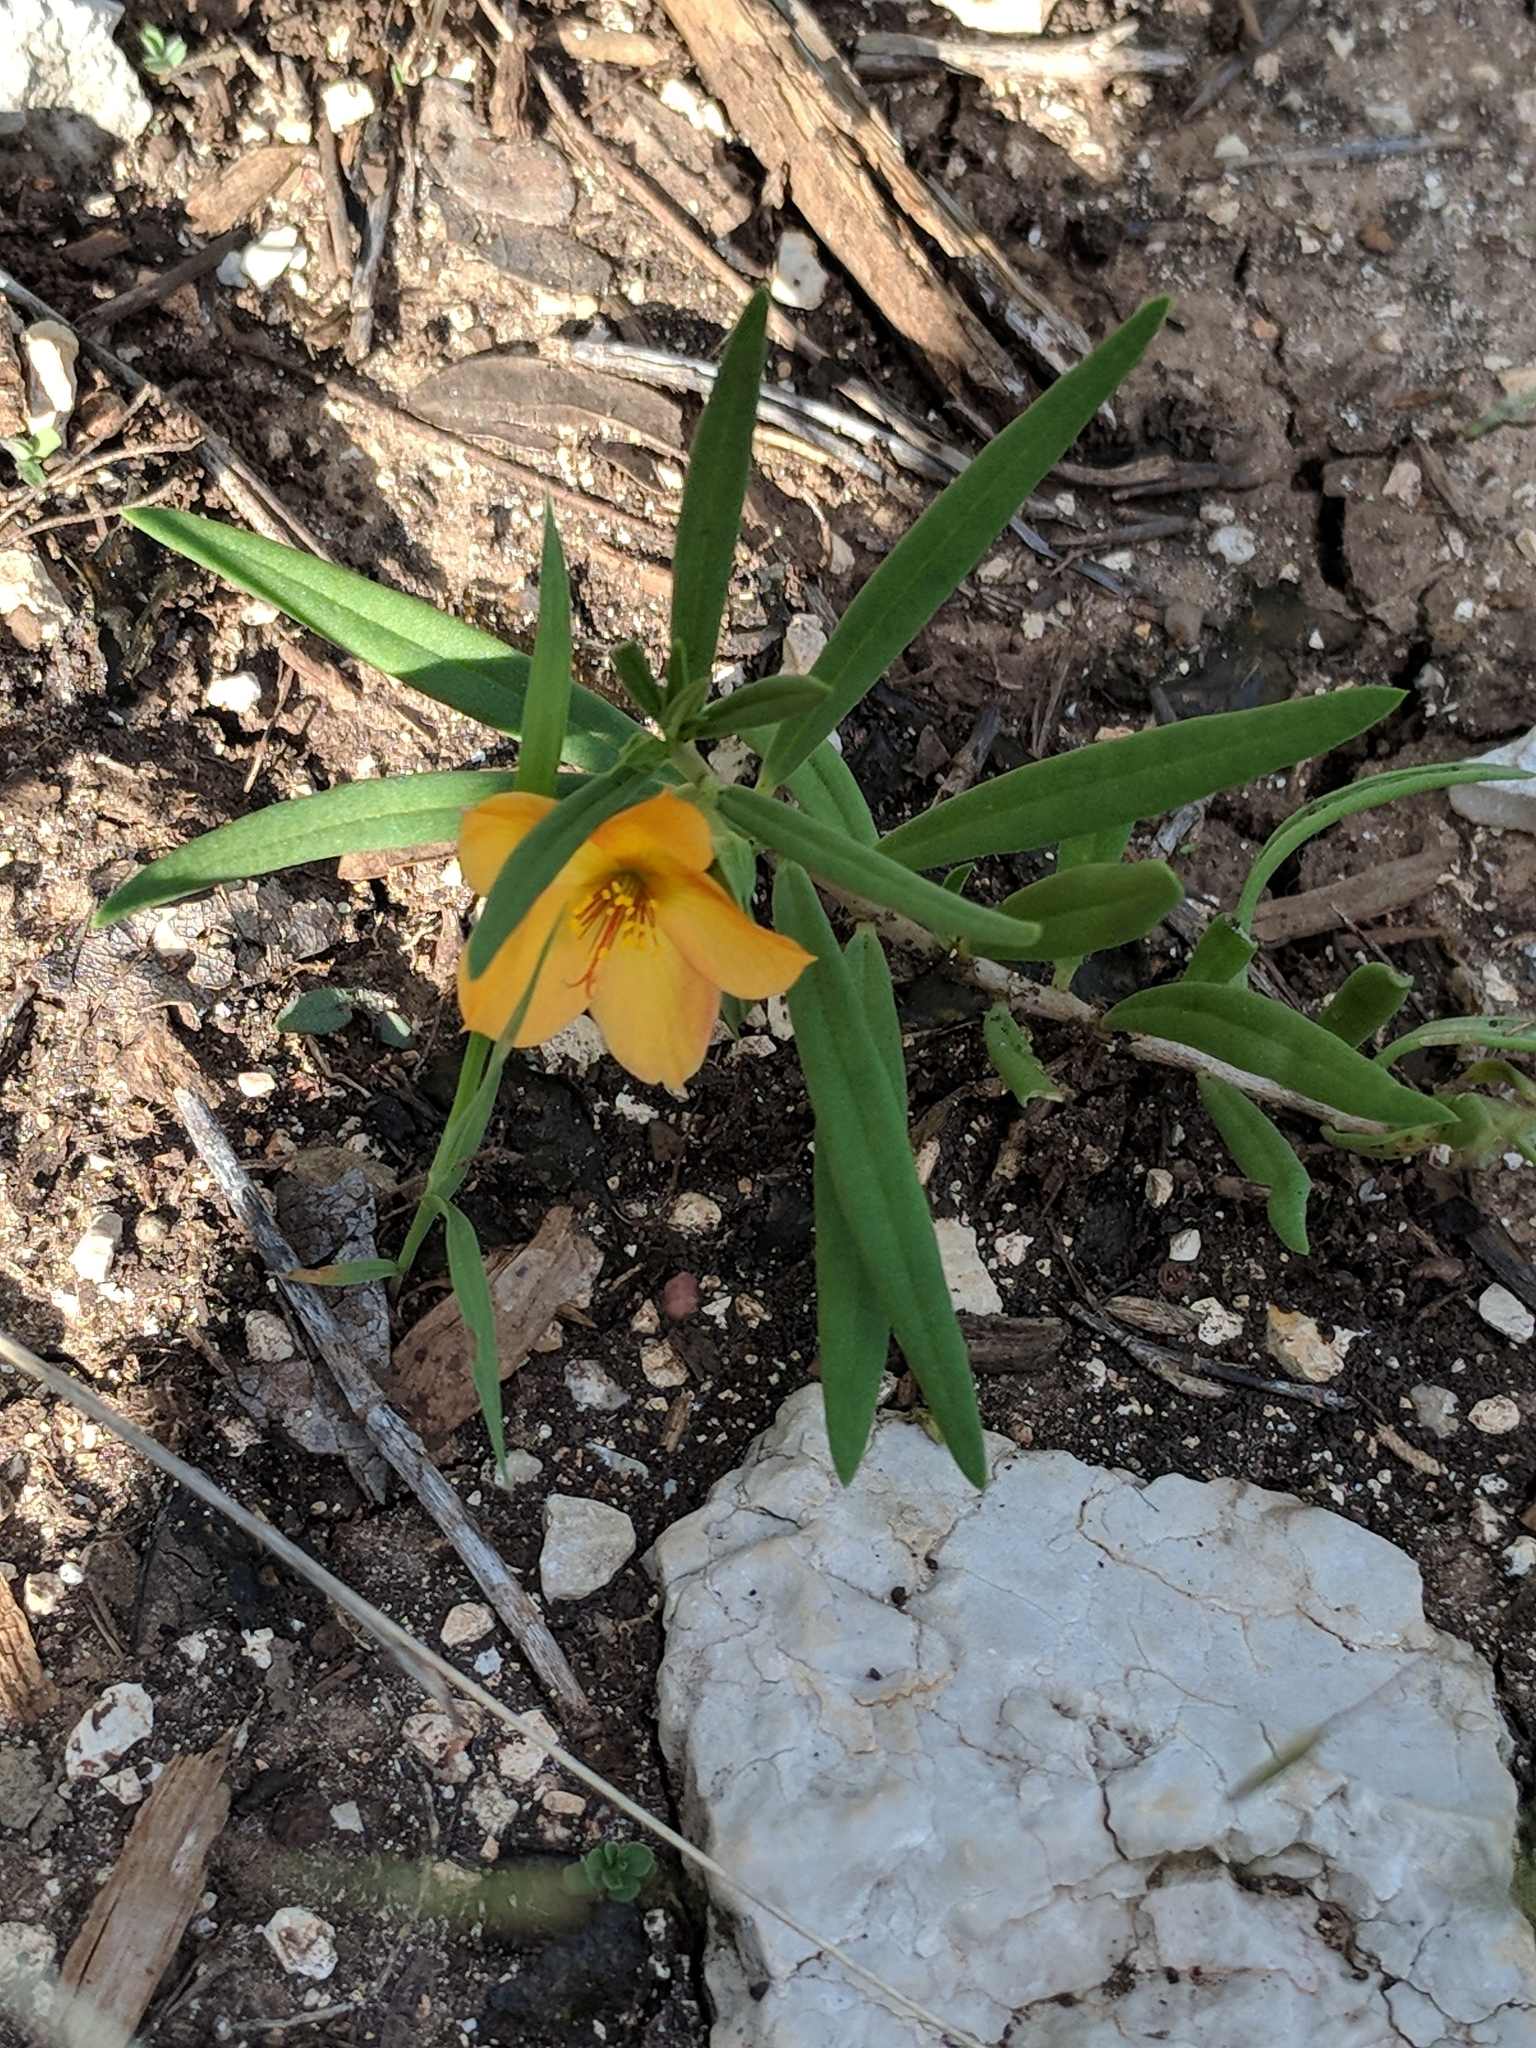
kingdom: Plantae
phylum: Tracheophyta
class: Magnoliopsida
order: Caryophyllales
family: Montiaceae
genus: Phemeranthus
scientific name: Phemeranthus aurantiacus
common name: Orange fameflower
